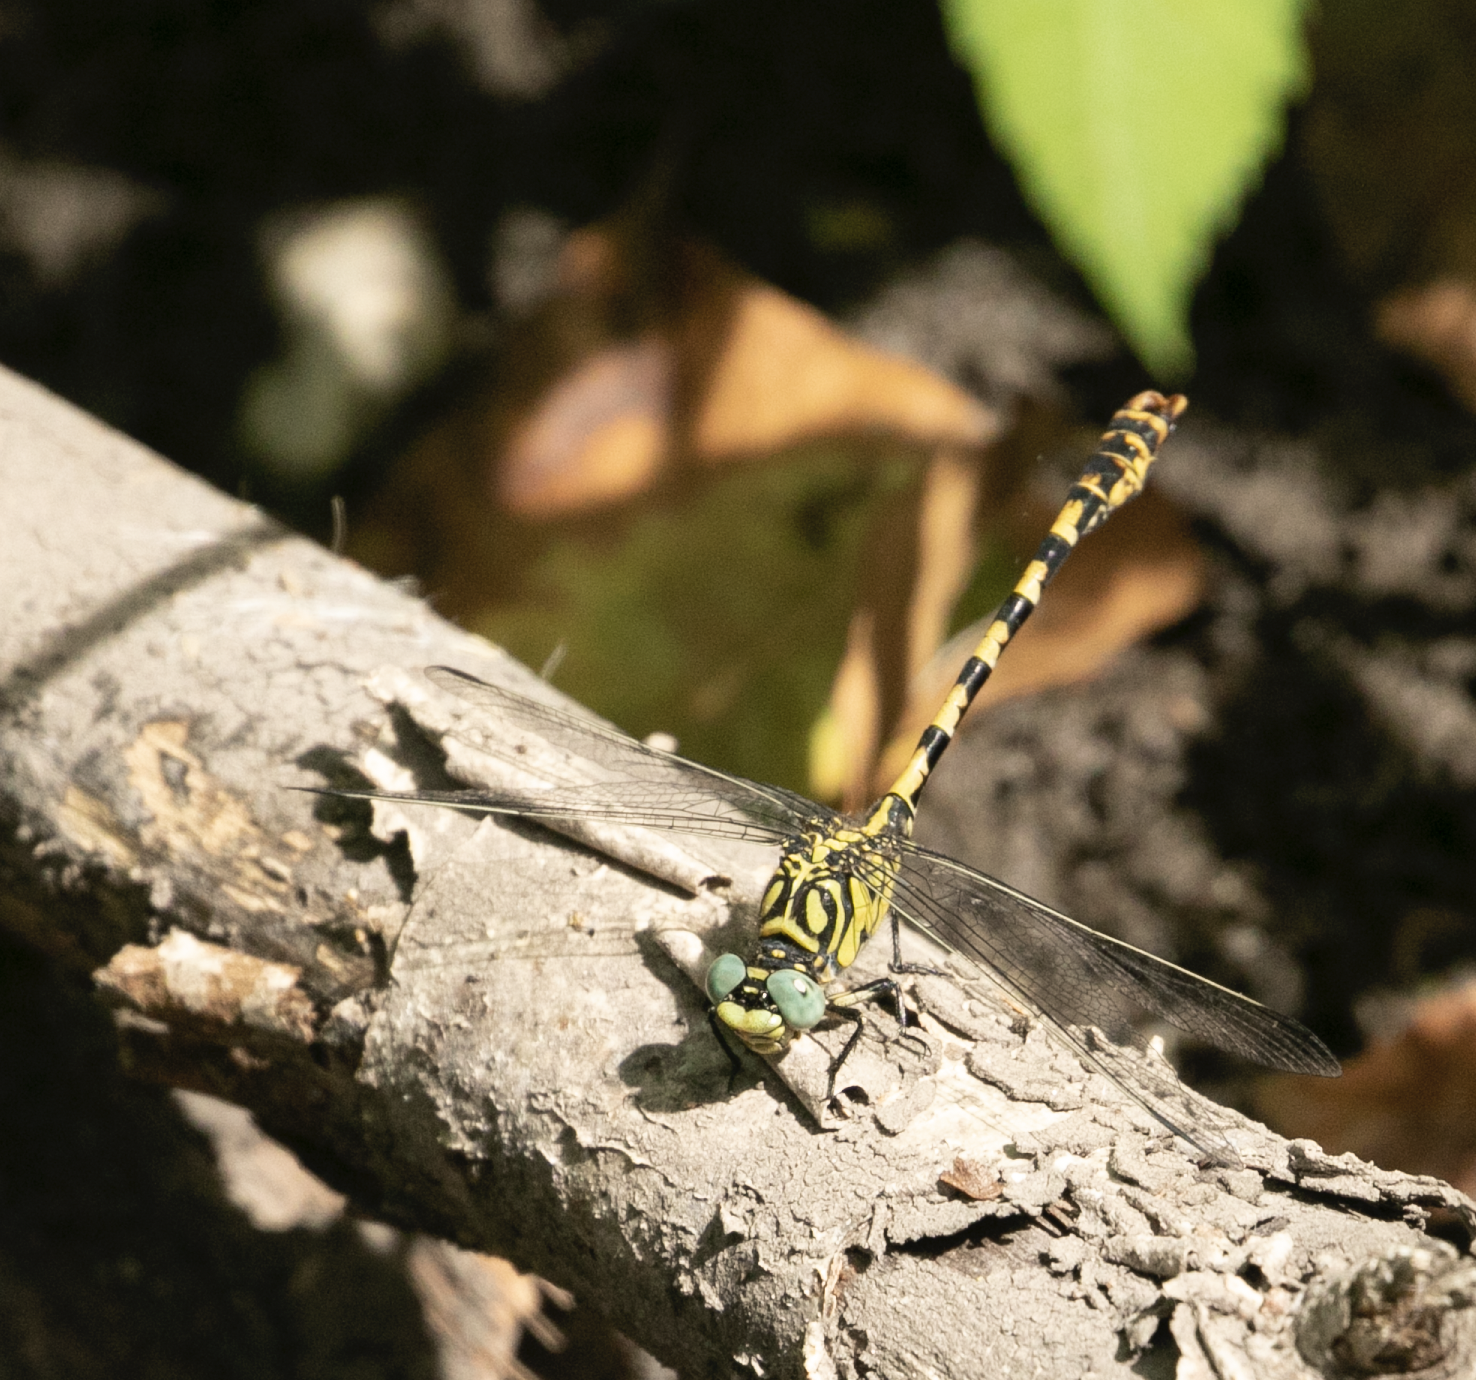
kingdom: Animalia
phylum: Arthropoda
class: Insecta
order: Odonata
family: Gomphidae
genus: Onychogomphus
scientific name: Onychogomphus forcipatus
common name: Small pincertail
